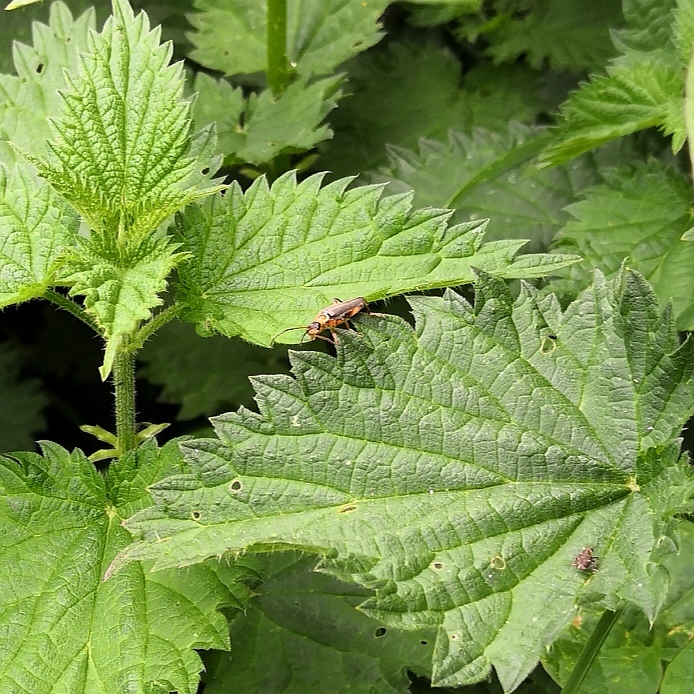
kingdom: Animalia
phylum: Arthropoda
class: Insecta
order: Coleoptera
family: Elateridae
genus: Athous
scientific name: Athous haemorrhoidalis
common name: Red-brown click beetle
